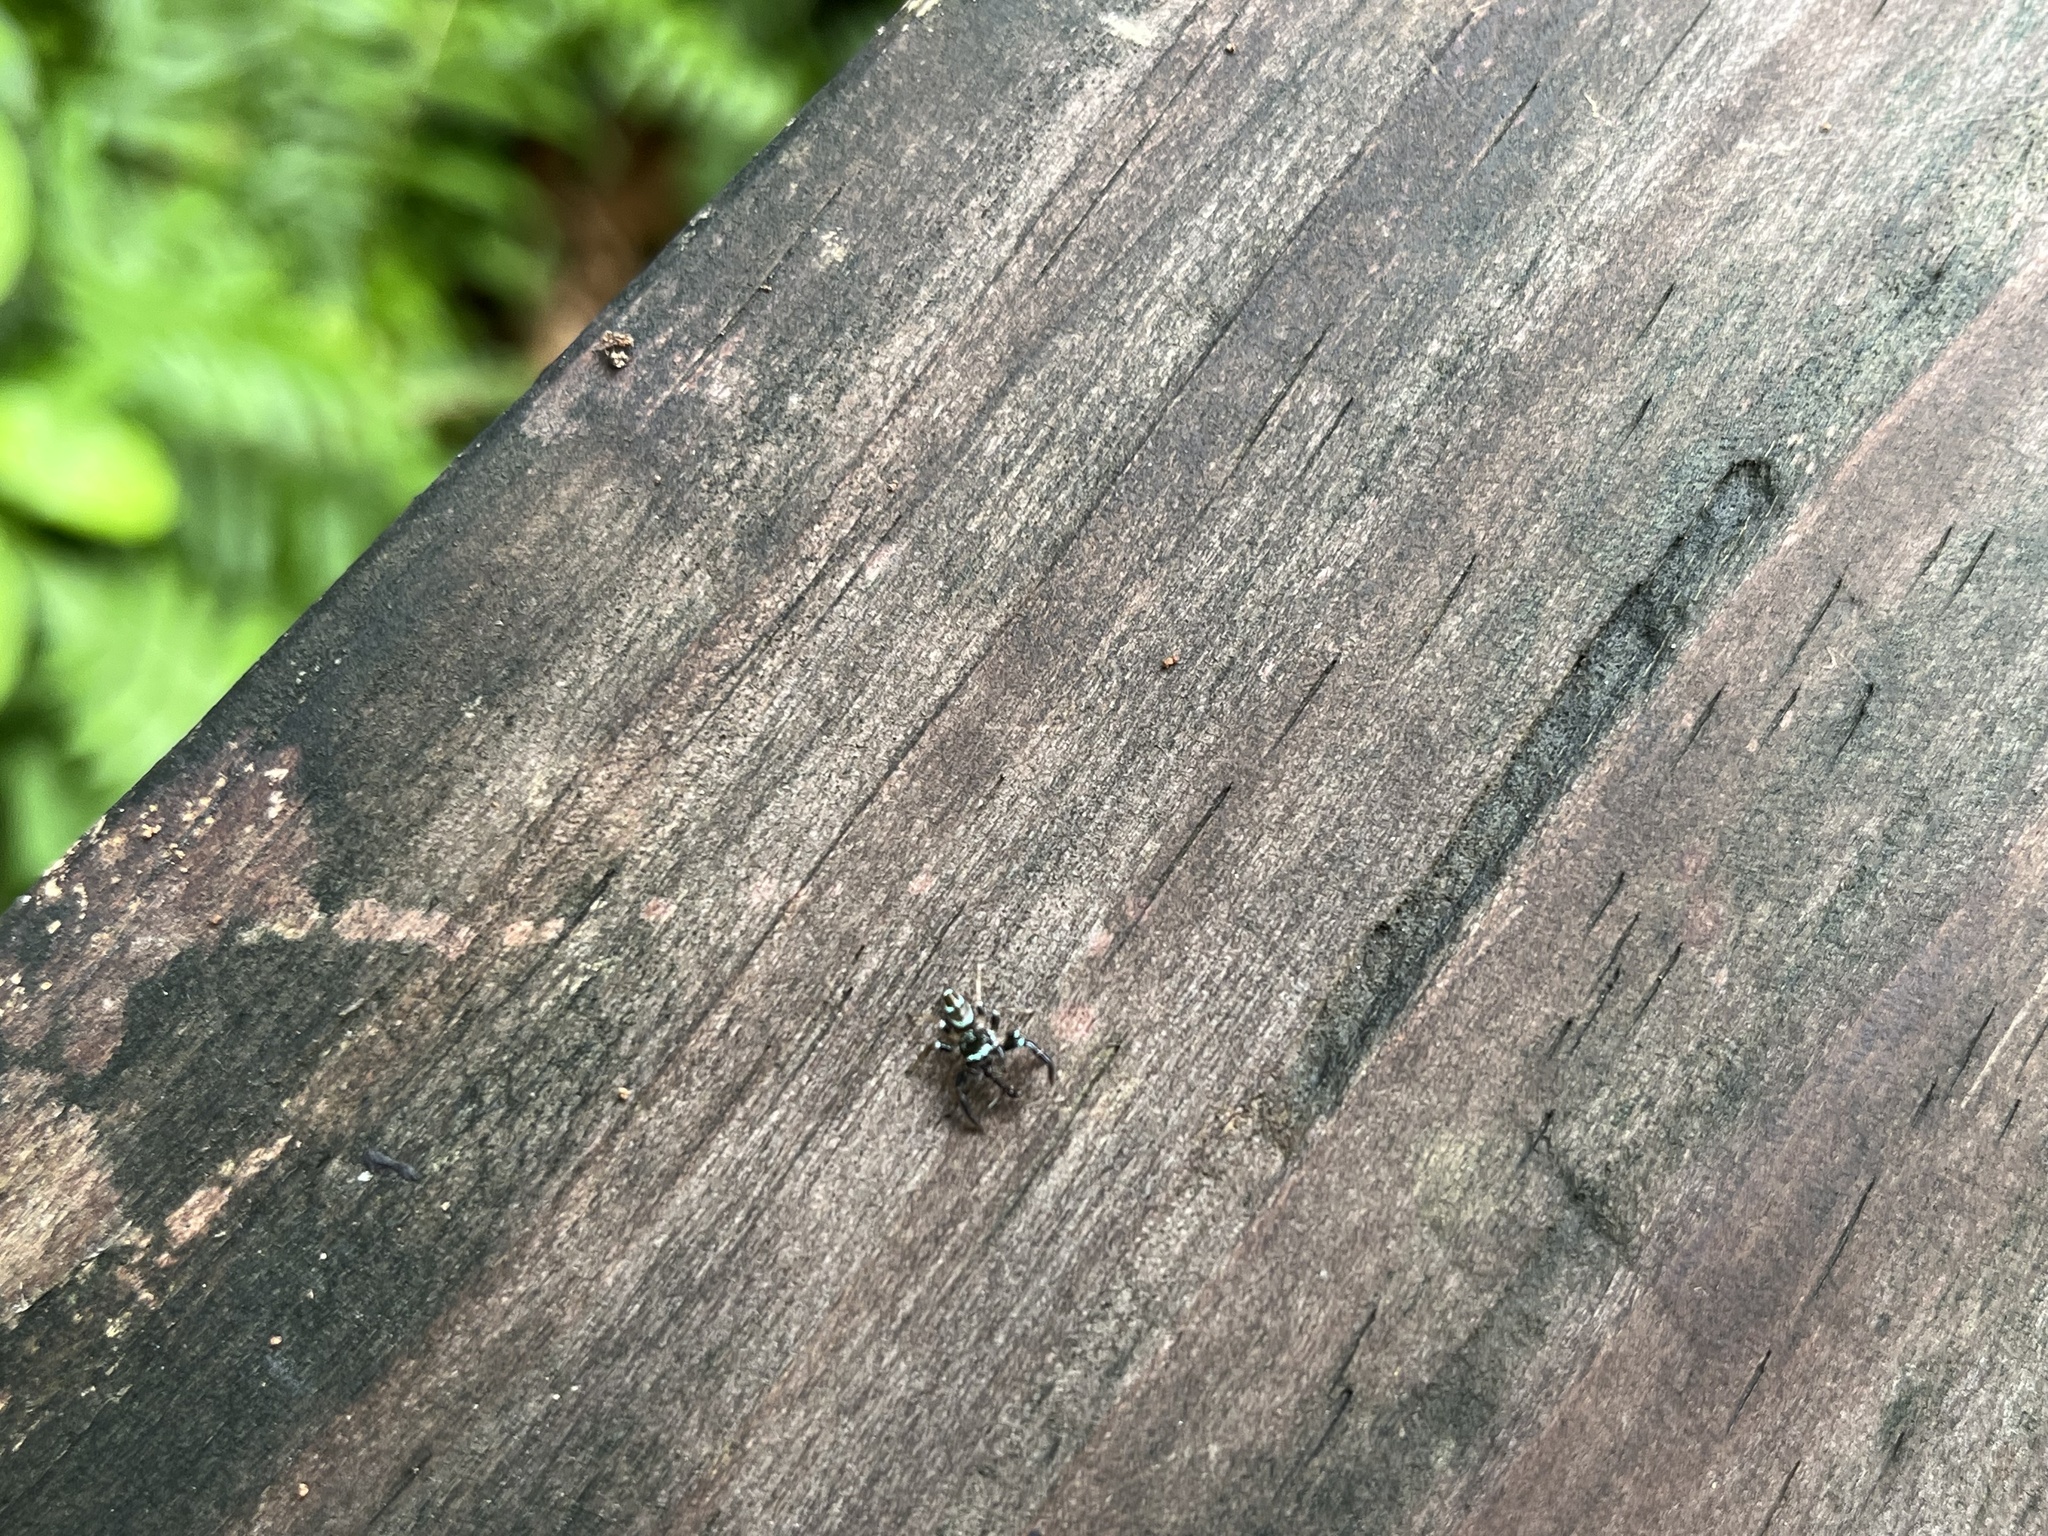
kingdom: Animalia
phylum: Arthropoda
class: Arachnida
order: Araneae
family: Salticidae
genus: Thiania
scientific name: Thiania bhamoensis
